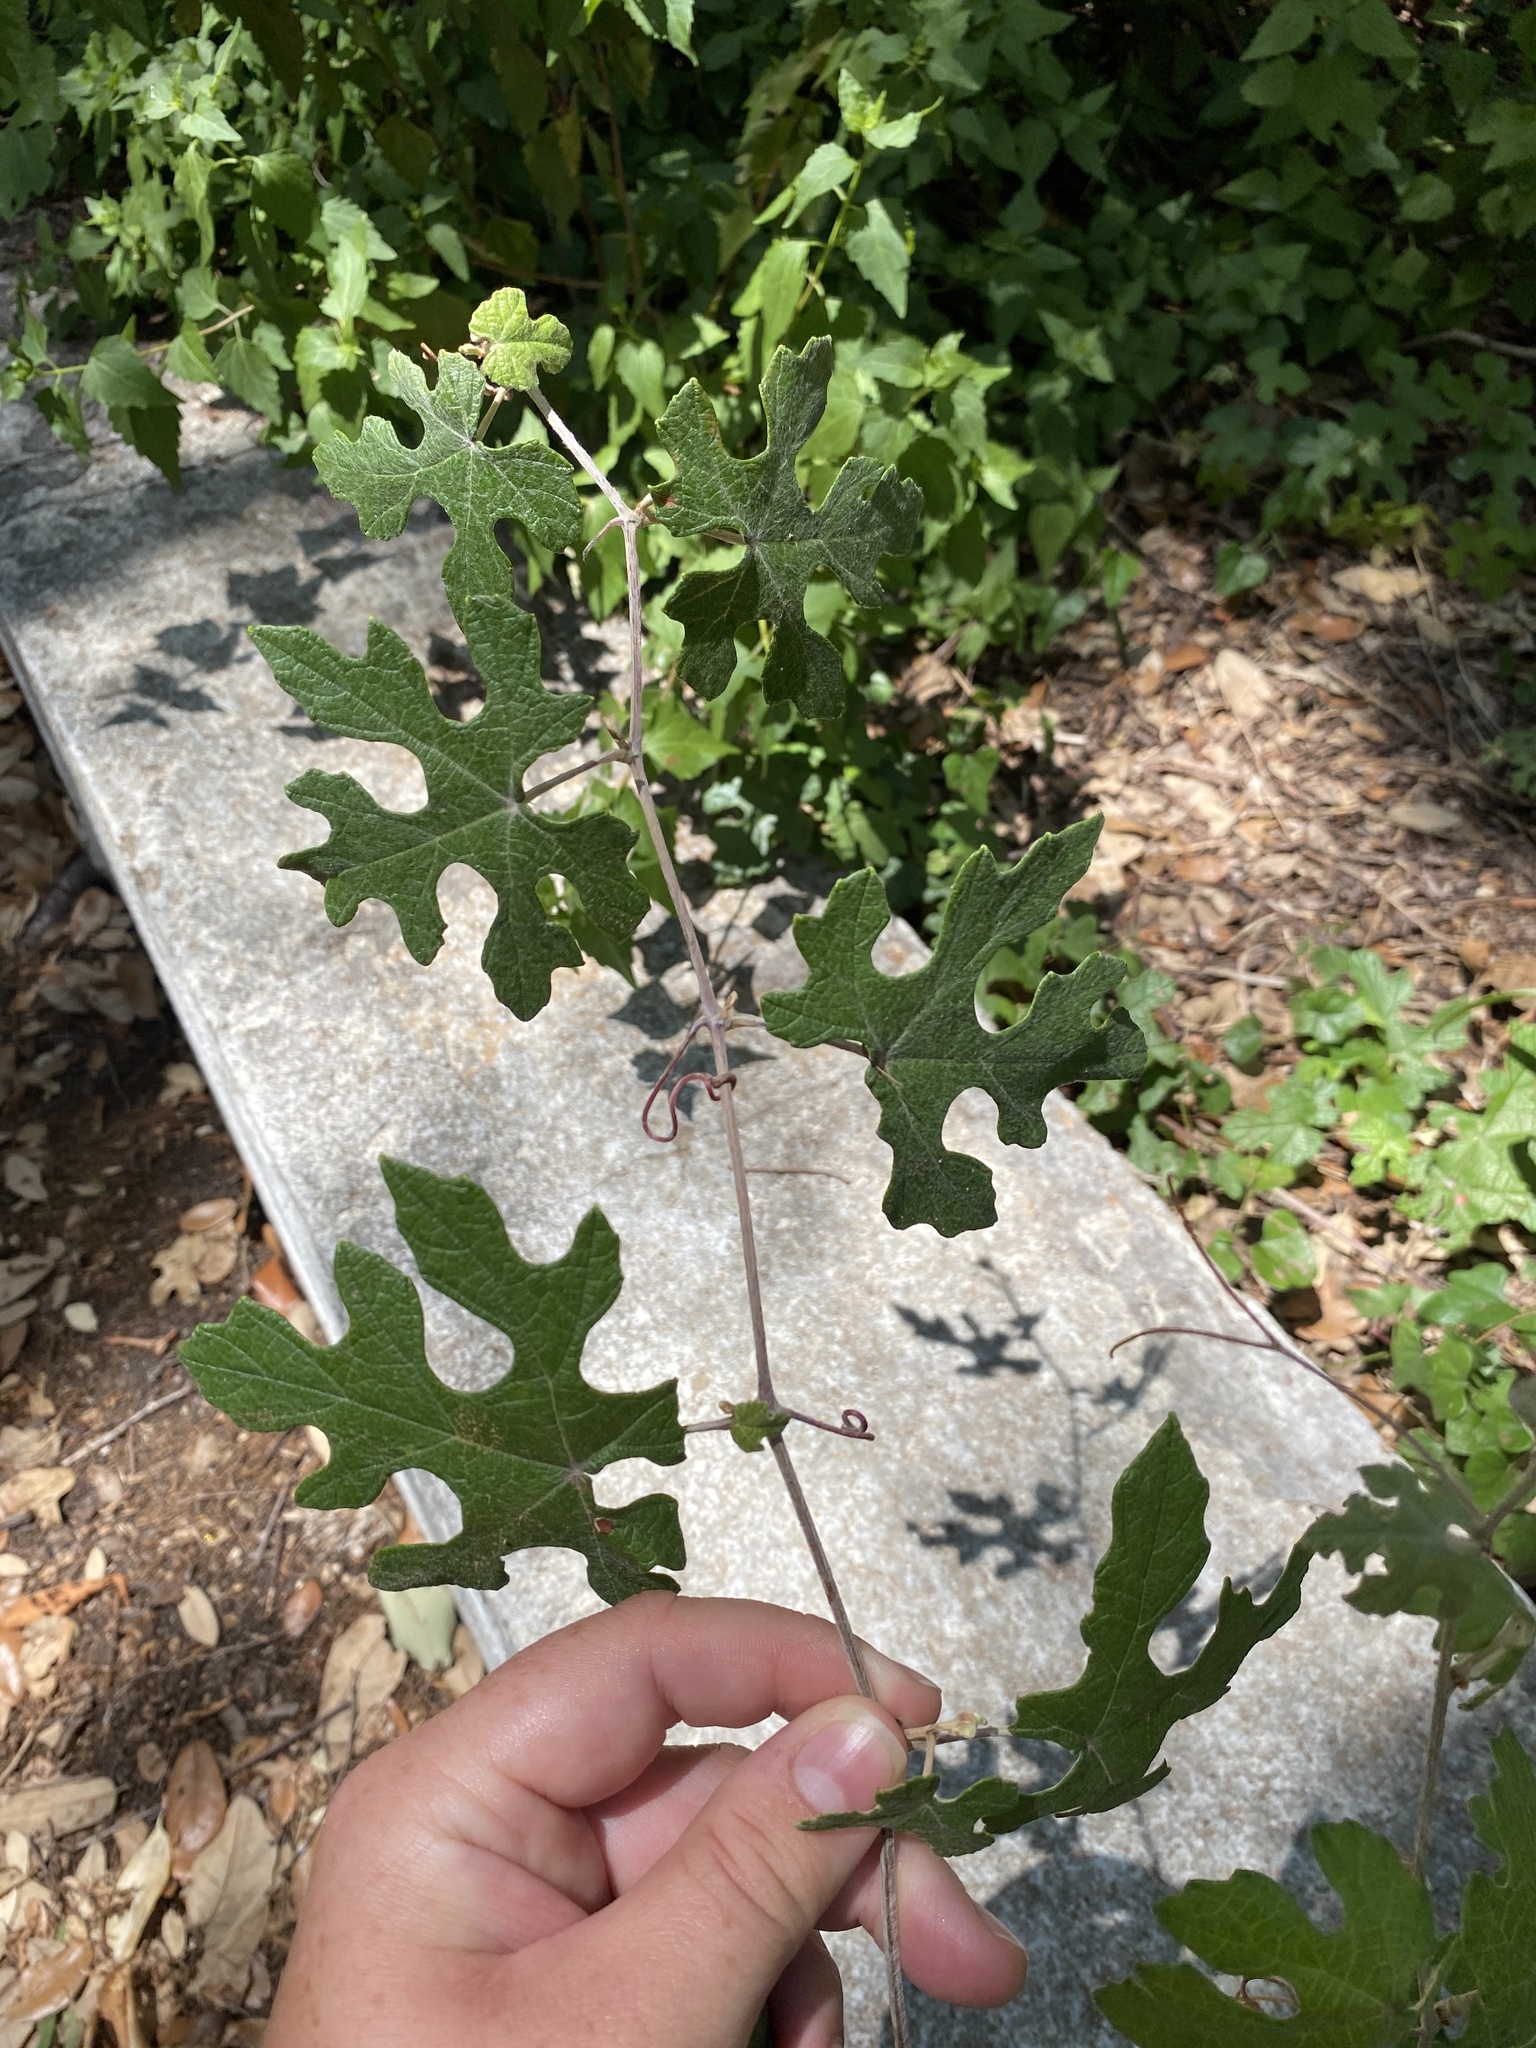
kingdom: Plantae
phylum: Tracheophyta
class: Magnoliopsida
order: Vitales
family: Vitaceae
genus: Vitis
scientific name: Vitis mustangensis
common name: Mustang grape
